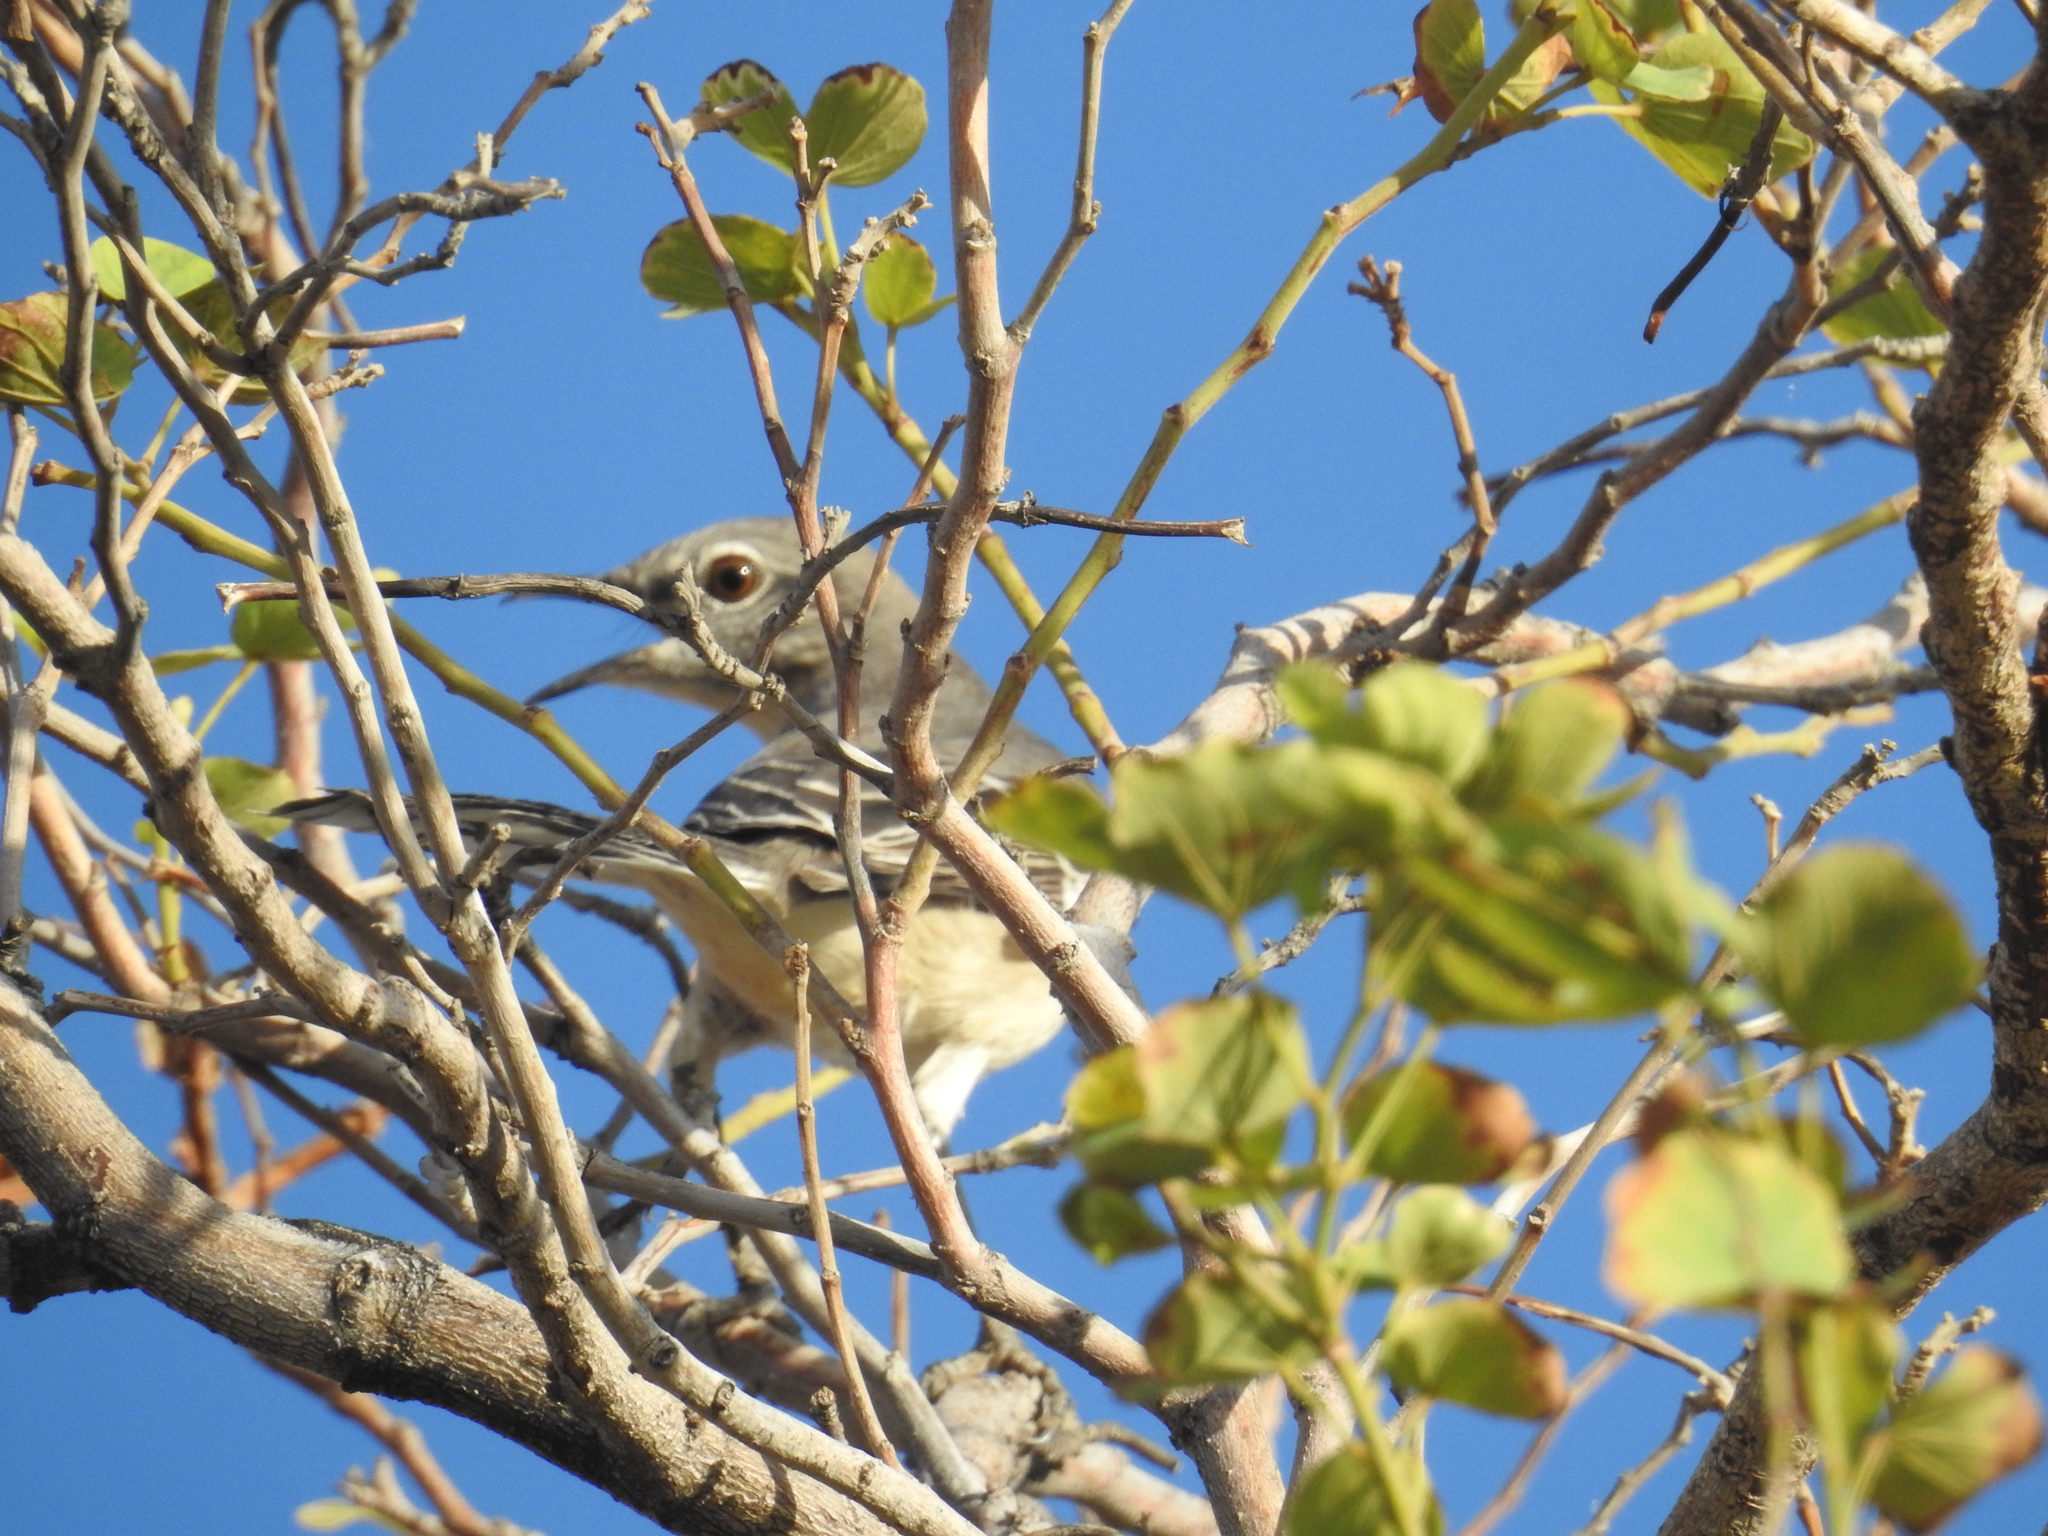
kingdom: Animalia
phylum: Chordata
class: Aves
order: Passeriformes
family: Mimidae
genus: Mimus
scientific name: Mimus polyglottos
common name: Northern mockingbird
